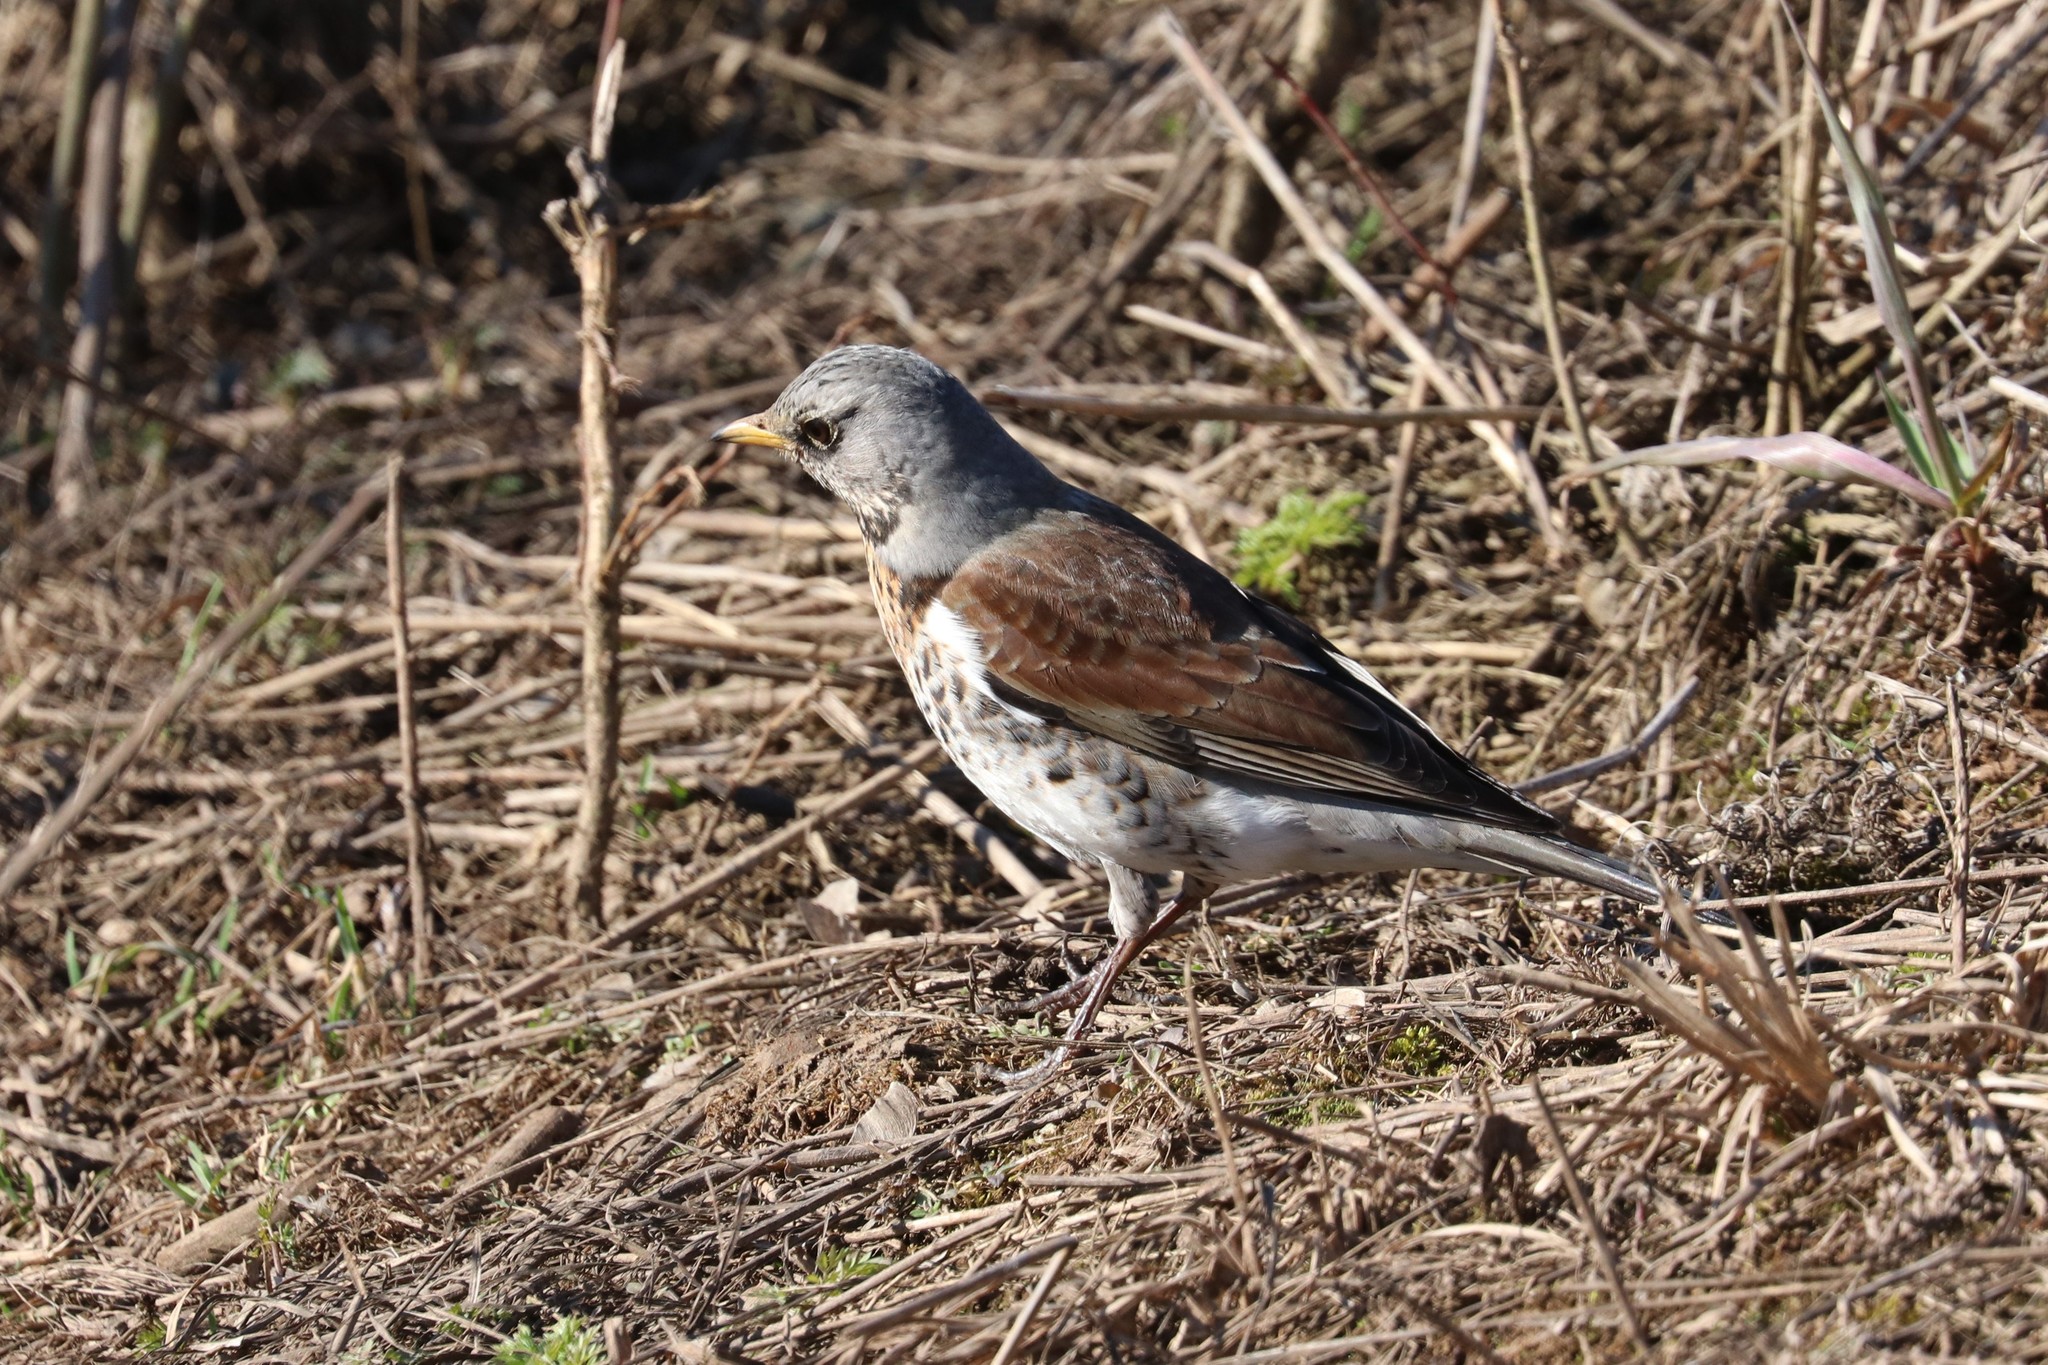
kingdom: Animalia
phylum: Chordata
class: Aves
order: Passeriformes
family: Turdidae
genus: Turdus
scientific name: Turdus pilaris
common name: Fieldfare
